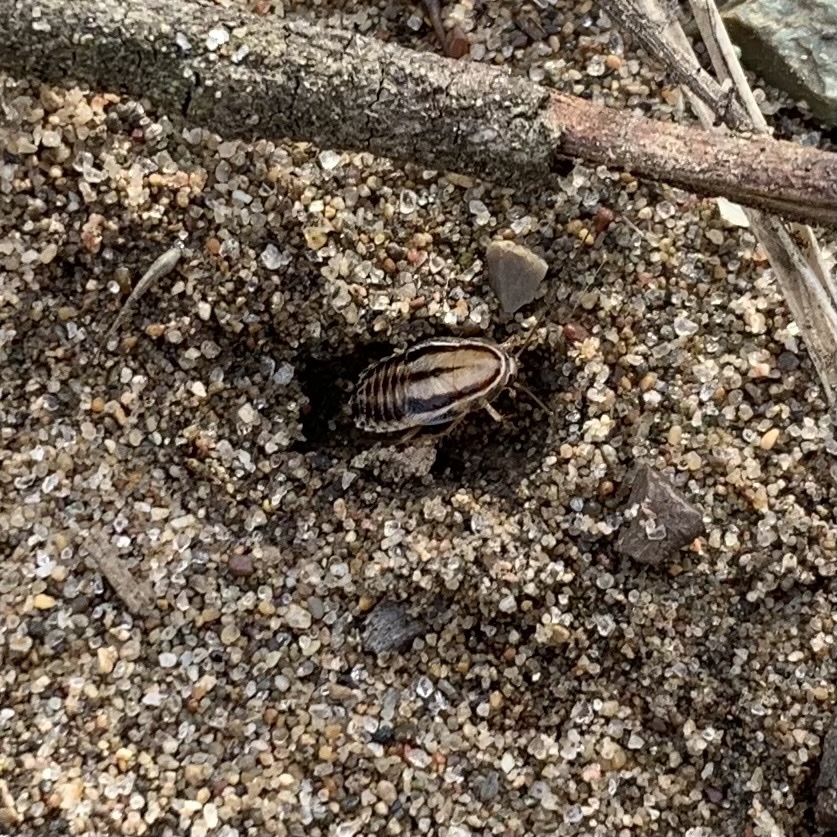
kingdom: Animalia
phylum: Arthropoda
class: Insecta
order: Blattodea
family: Ectobiidae
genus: Luridiblatta
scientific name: Luridiblatta trivittata
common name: Three-lined cockroach
